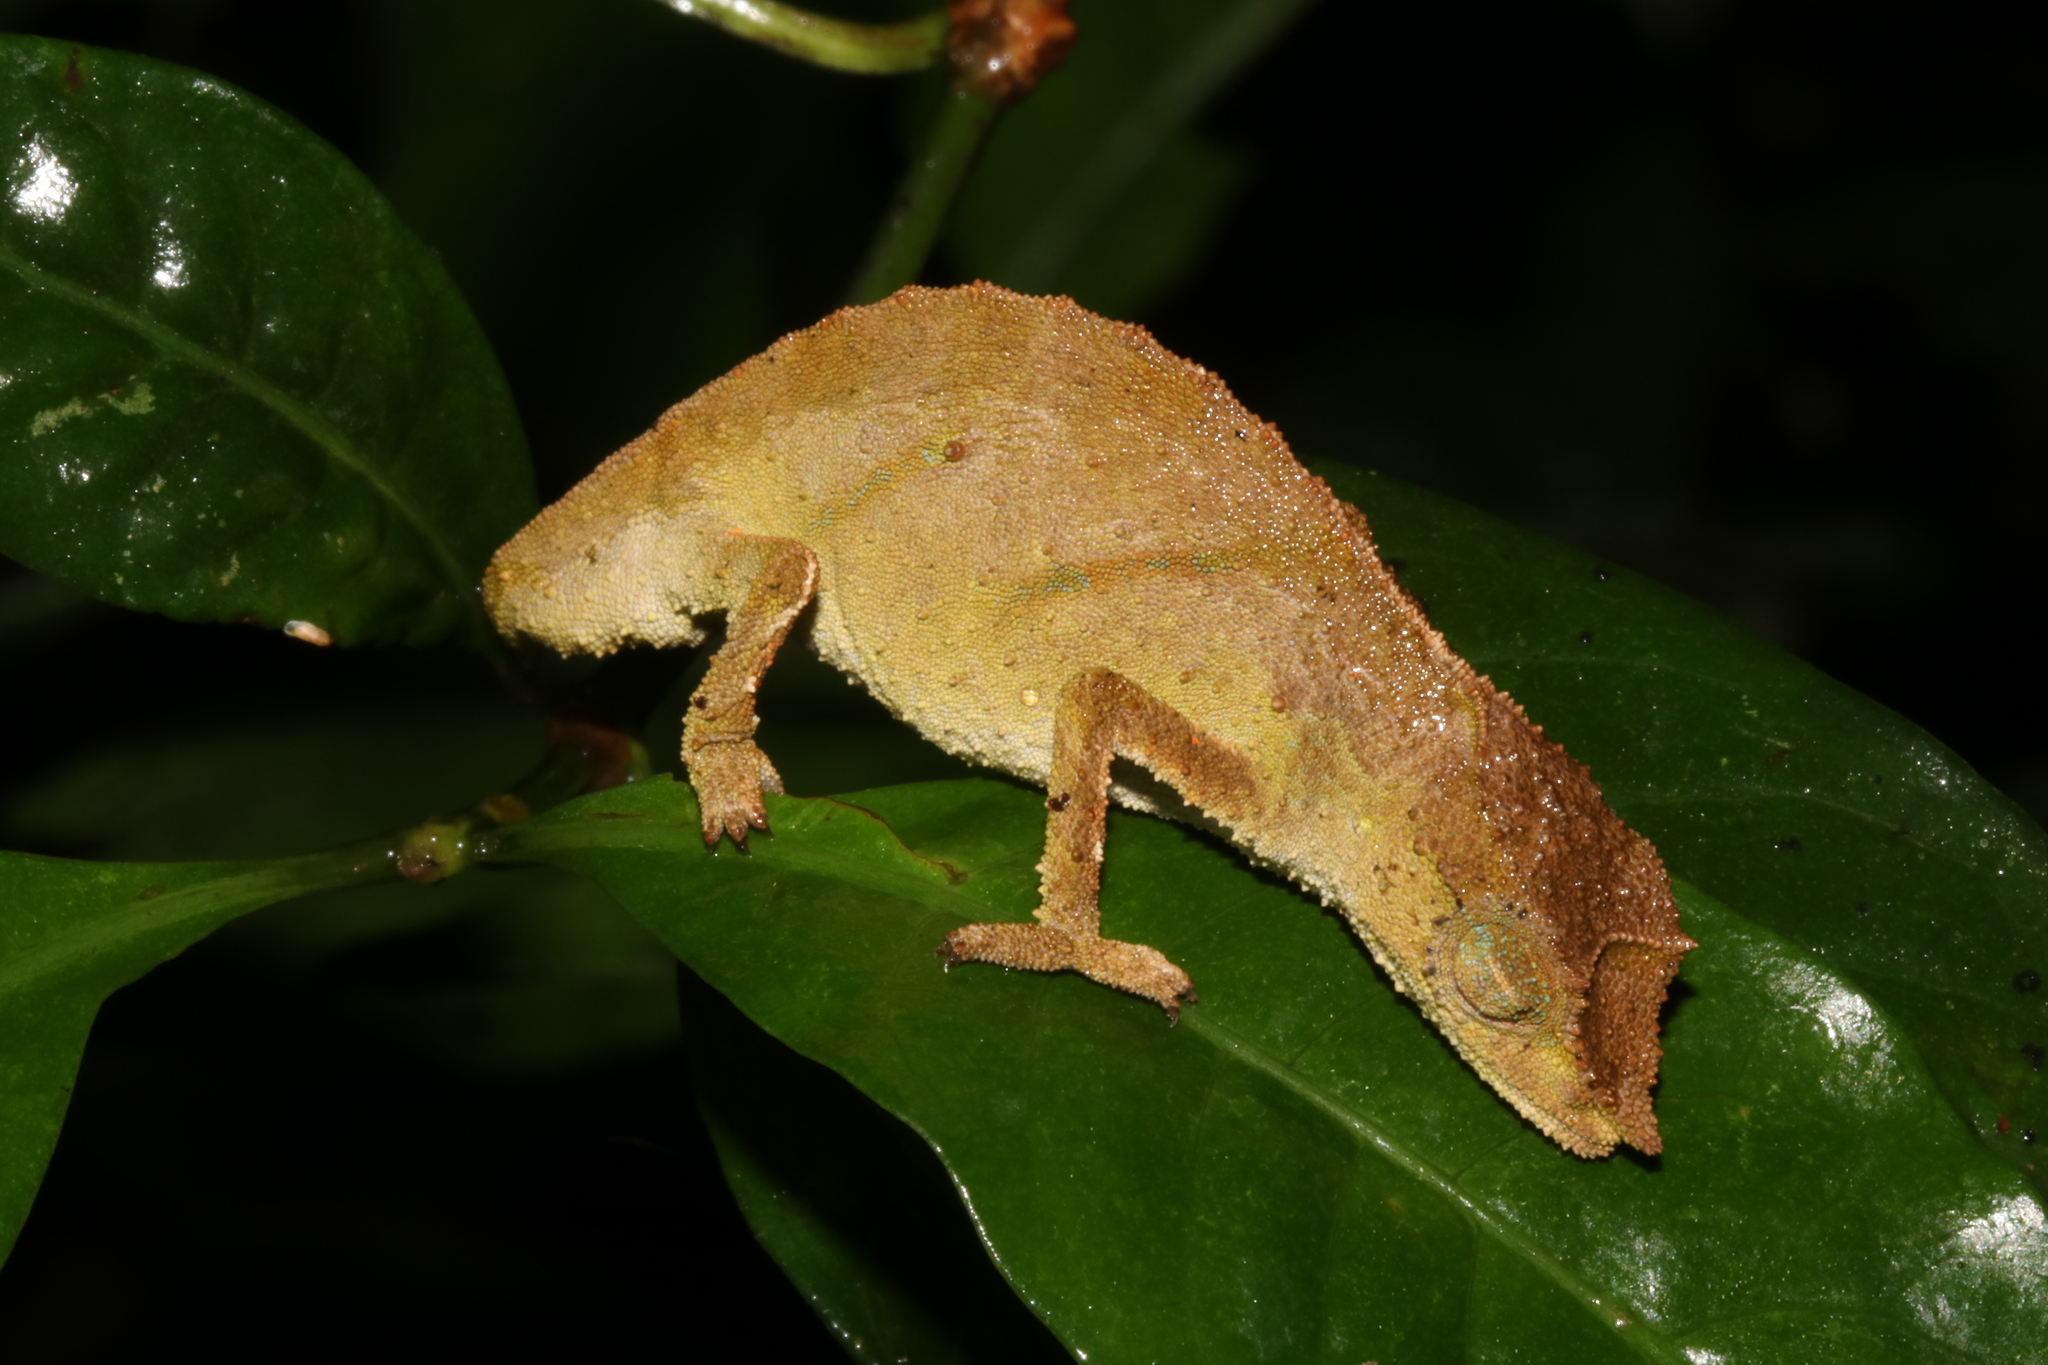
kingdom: Animalia
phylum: Chordata
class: Squamata
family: Chamaeleonidae
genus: Rhampholeon
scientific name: Rhampholeon nchisiensis
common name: South african stumptail chameleon
